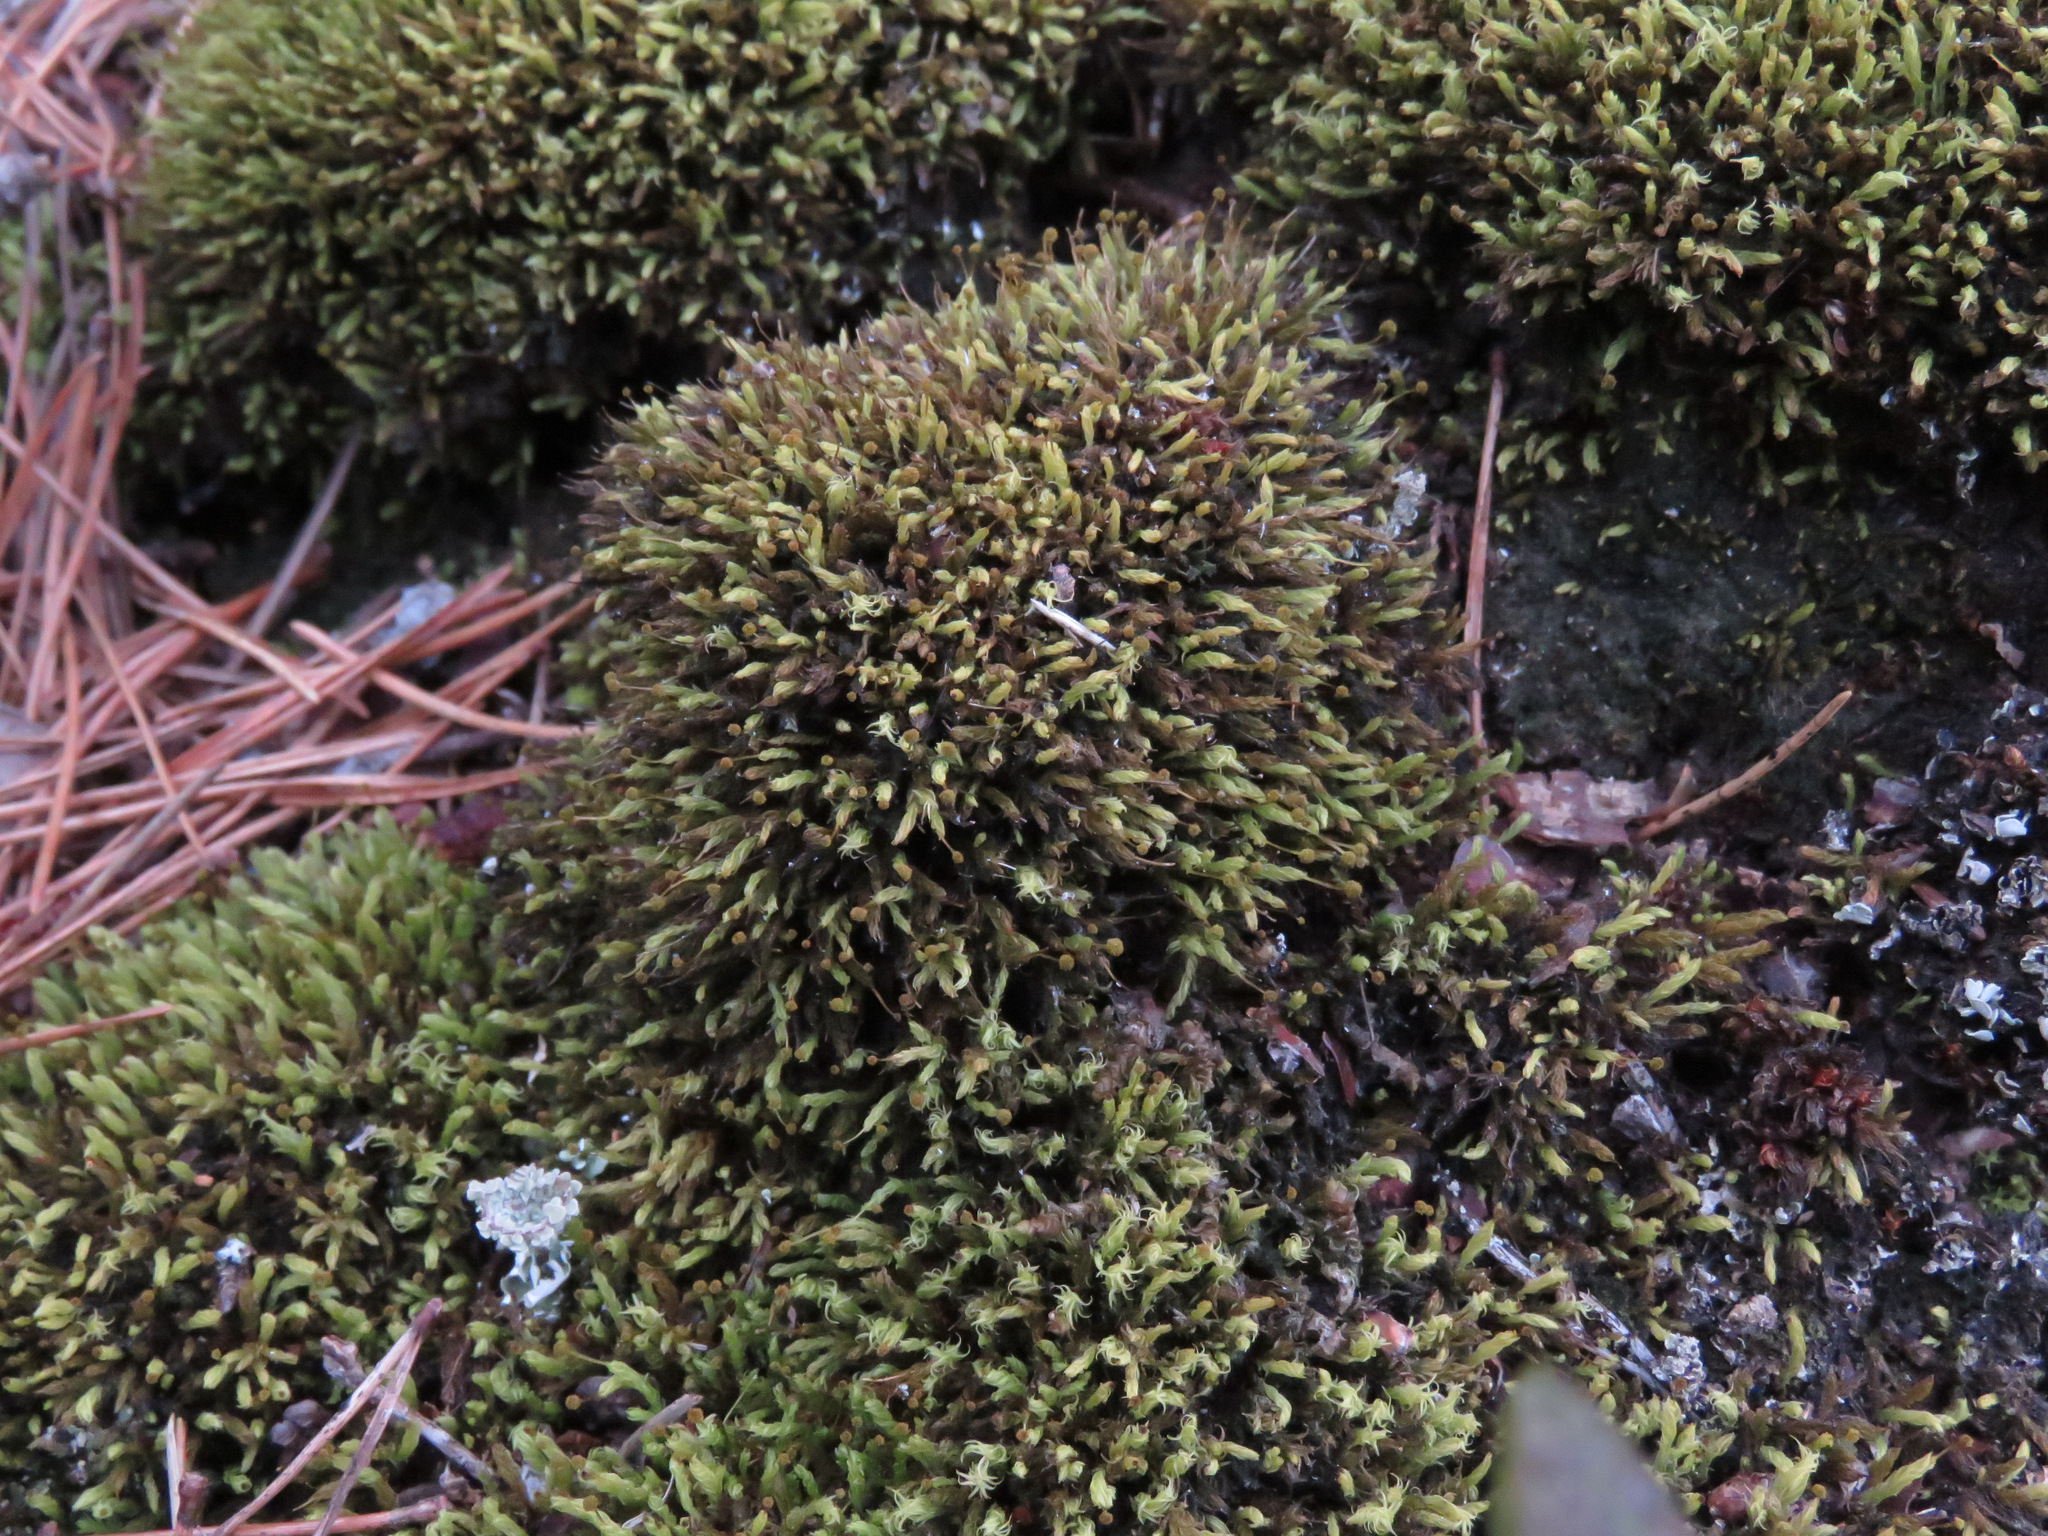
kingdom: Plantae
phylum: Bryophyta
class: Bryopsida
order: Aulacomniales
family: Aulacomniaceae
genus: Aulacomnium
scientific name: Aulacomnium androgynum
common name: Little groove moss
